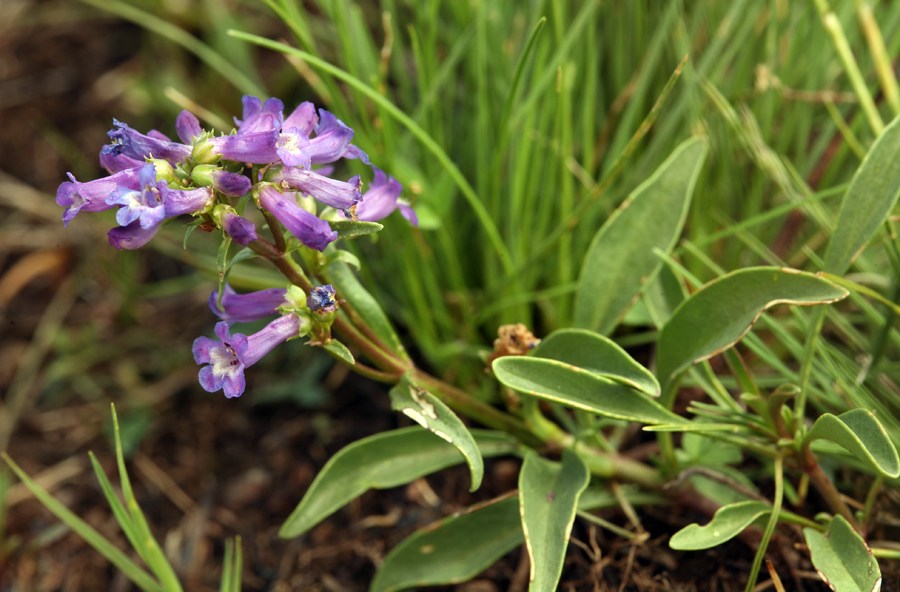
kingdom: Plantae
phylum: Tracheophyta
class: Magnoliopsida
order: Lamiales
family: Plantaginaceae
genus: Penstemon
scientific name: Penstemon procerus
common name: Small-flower penstemon
